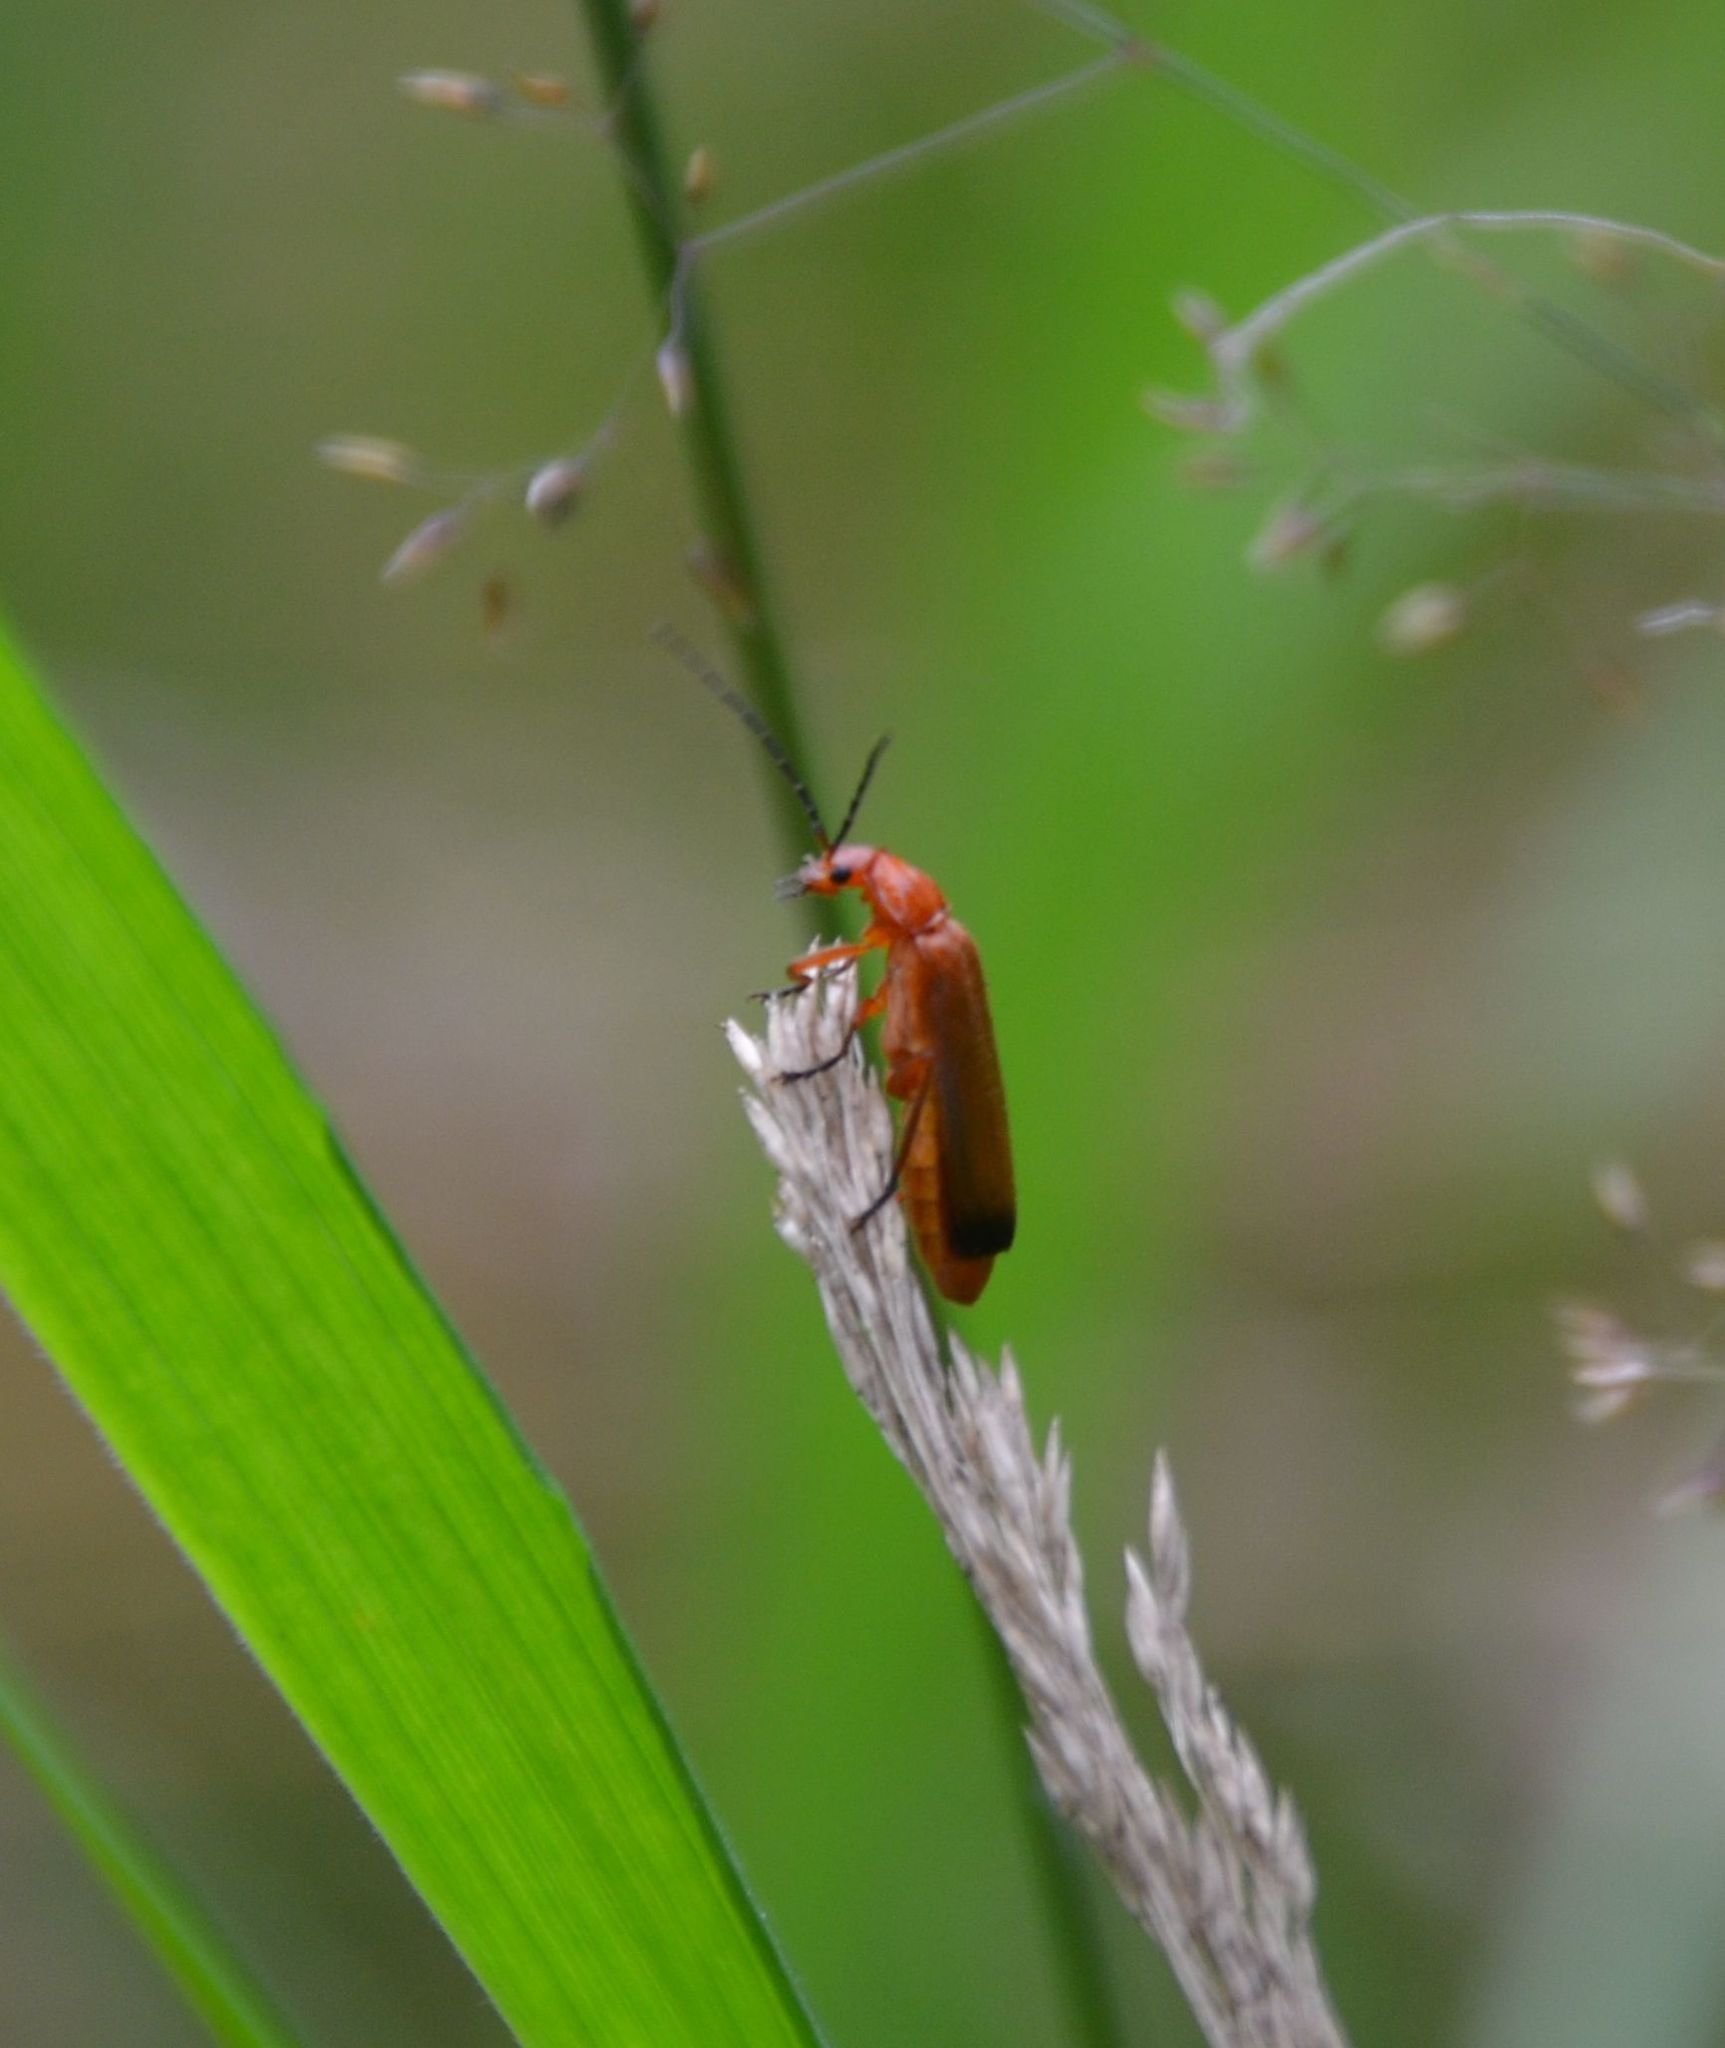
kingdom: Animalia
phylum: Arthropoda
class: Insecta
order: Coleoptera
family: Cantharidae
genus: Rhagonycha
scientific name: Rhagonycha fulva
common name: Common red soldier beetle
